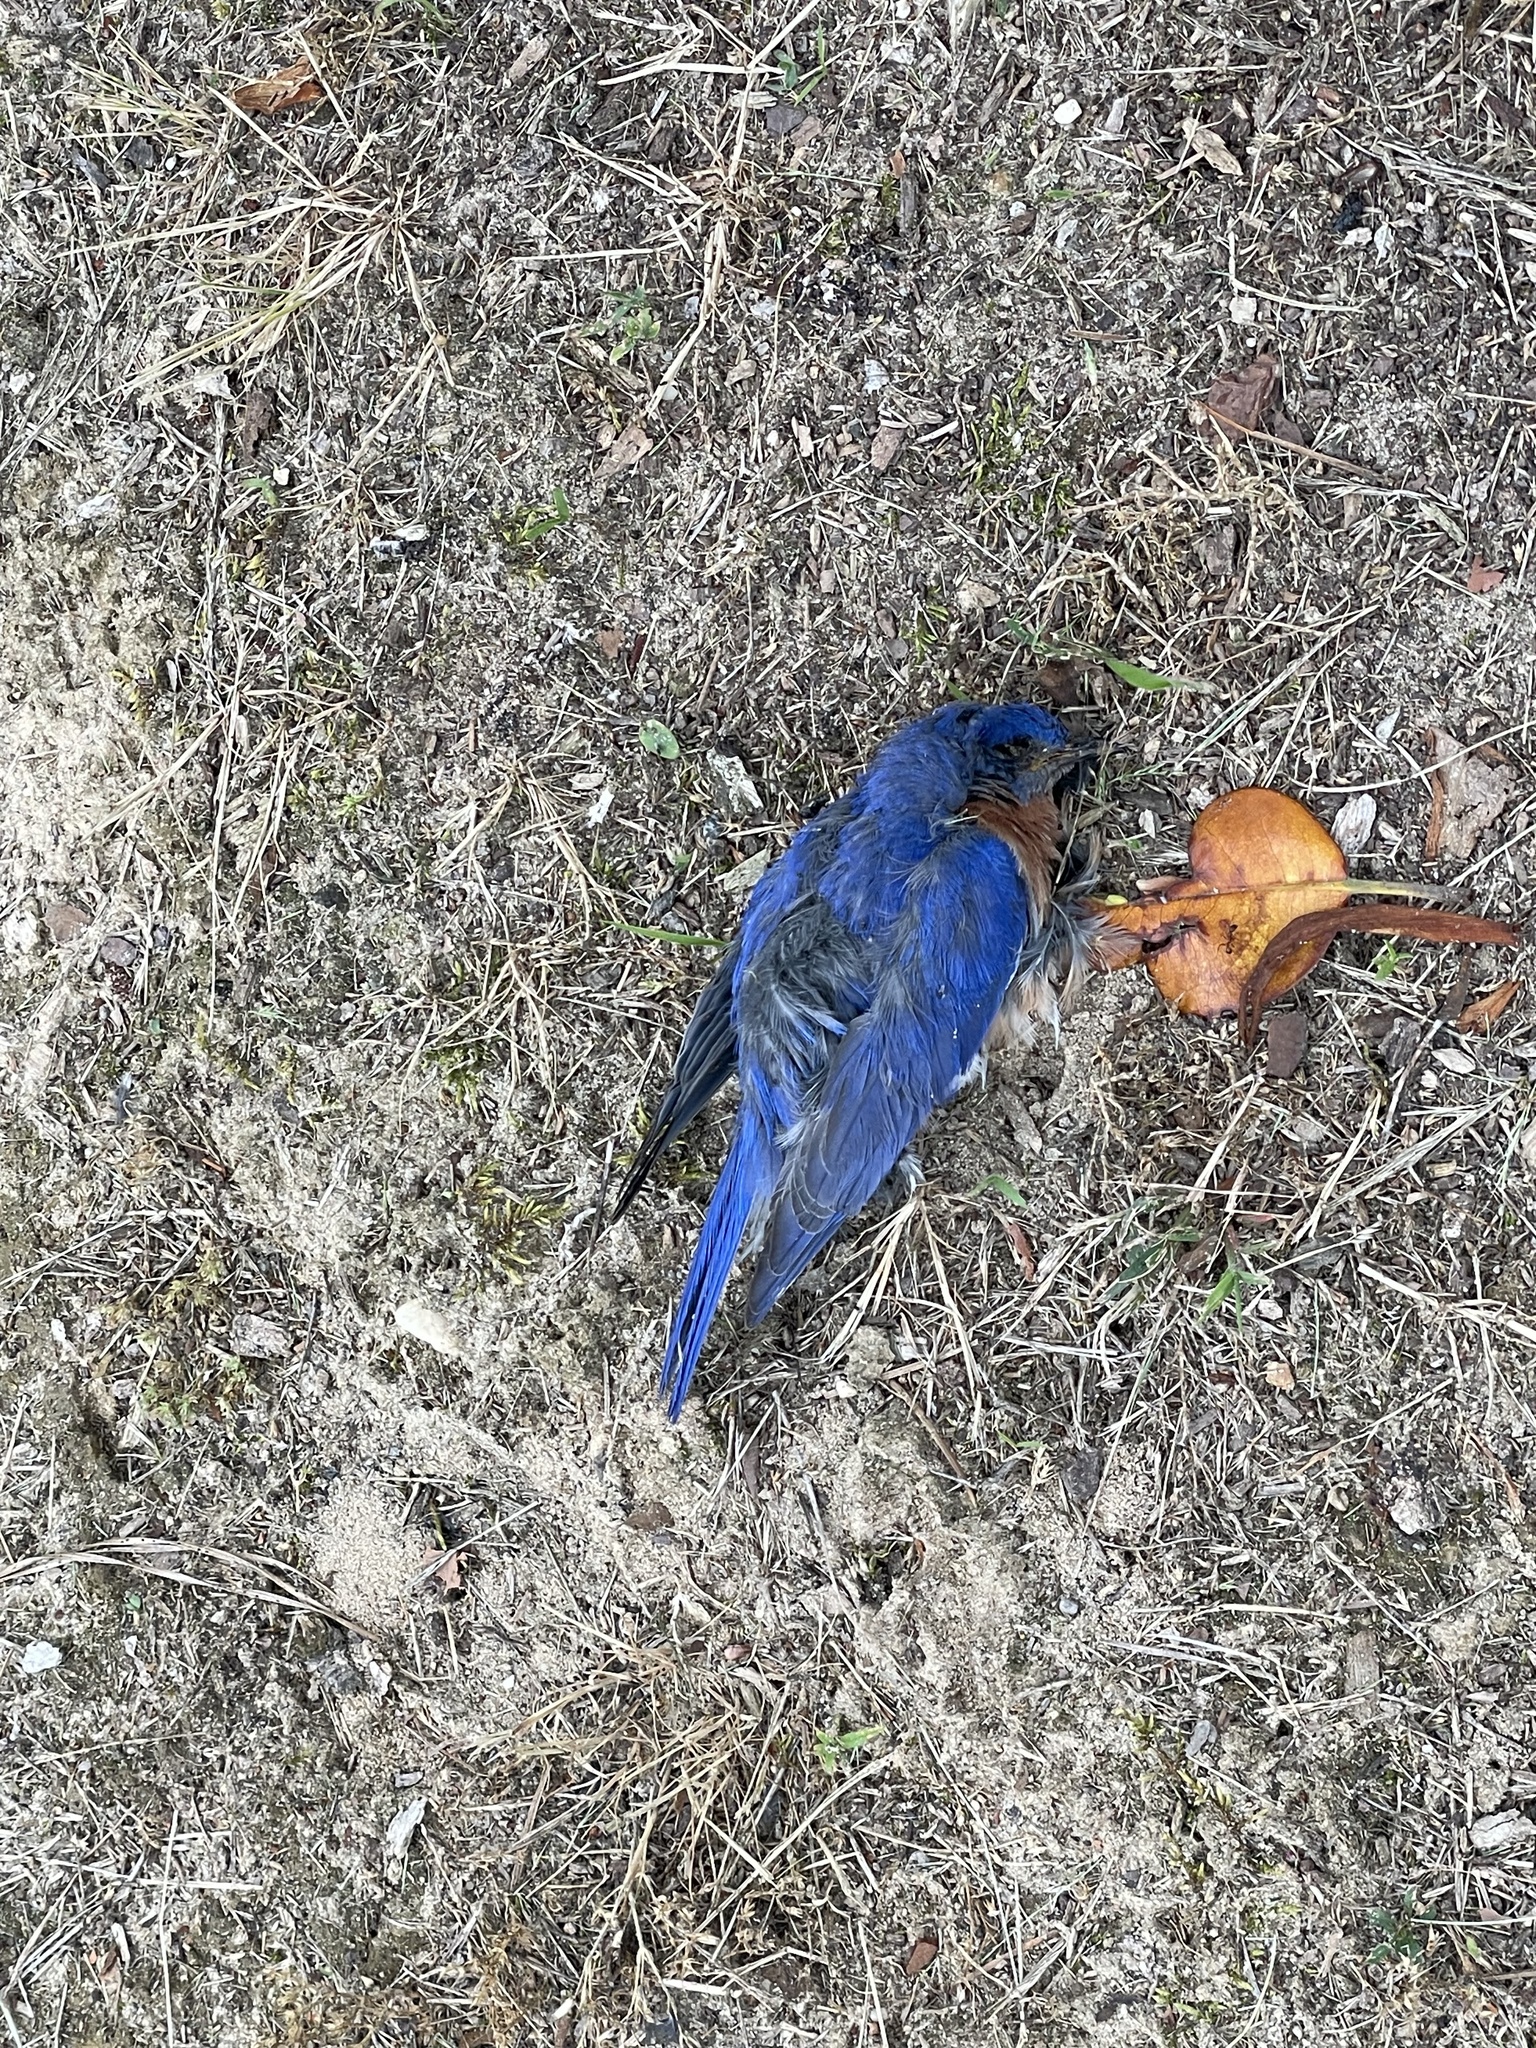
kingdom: Animalia
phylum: Chordata
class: Aves
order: Passeriformes
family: Turdidae
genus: Sialia
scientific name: Sialia sialis
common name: Eastern bluebird
